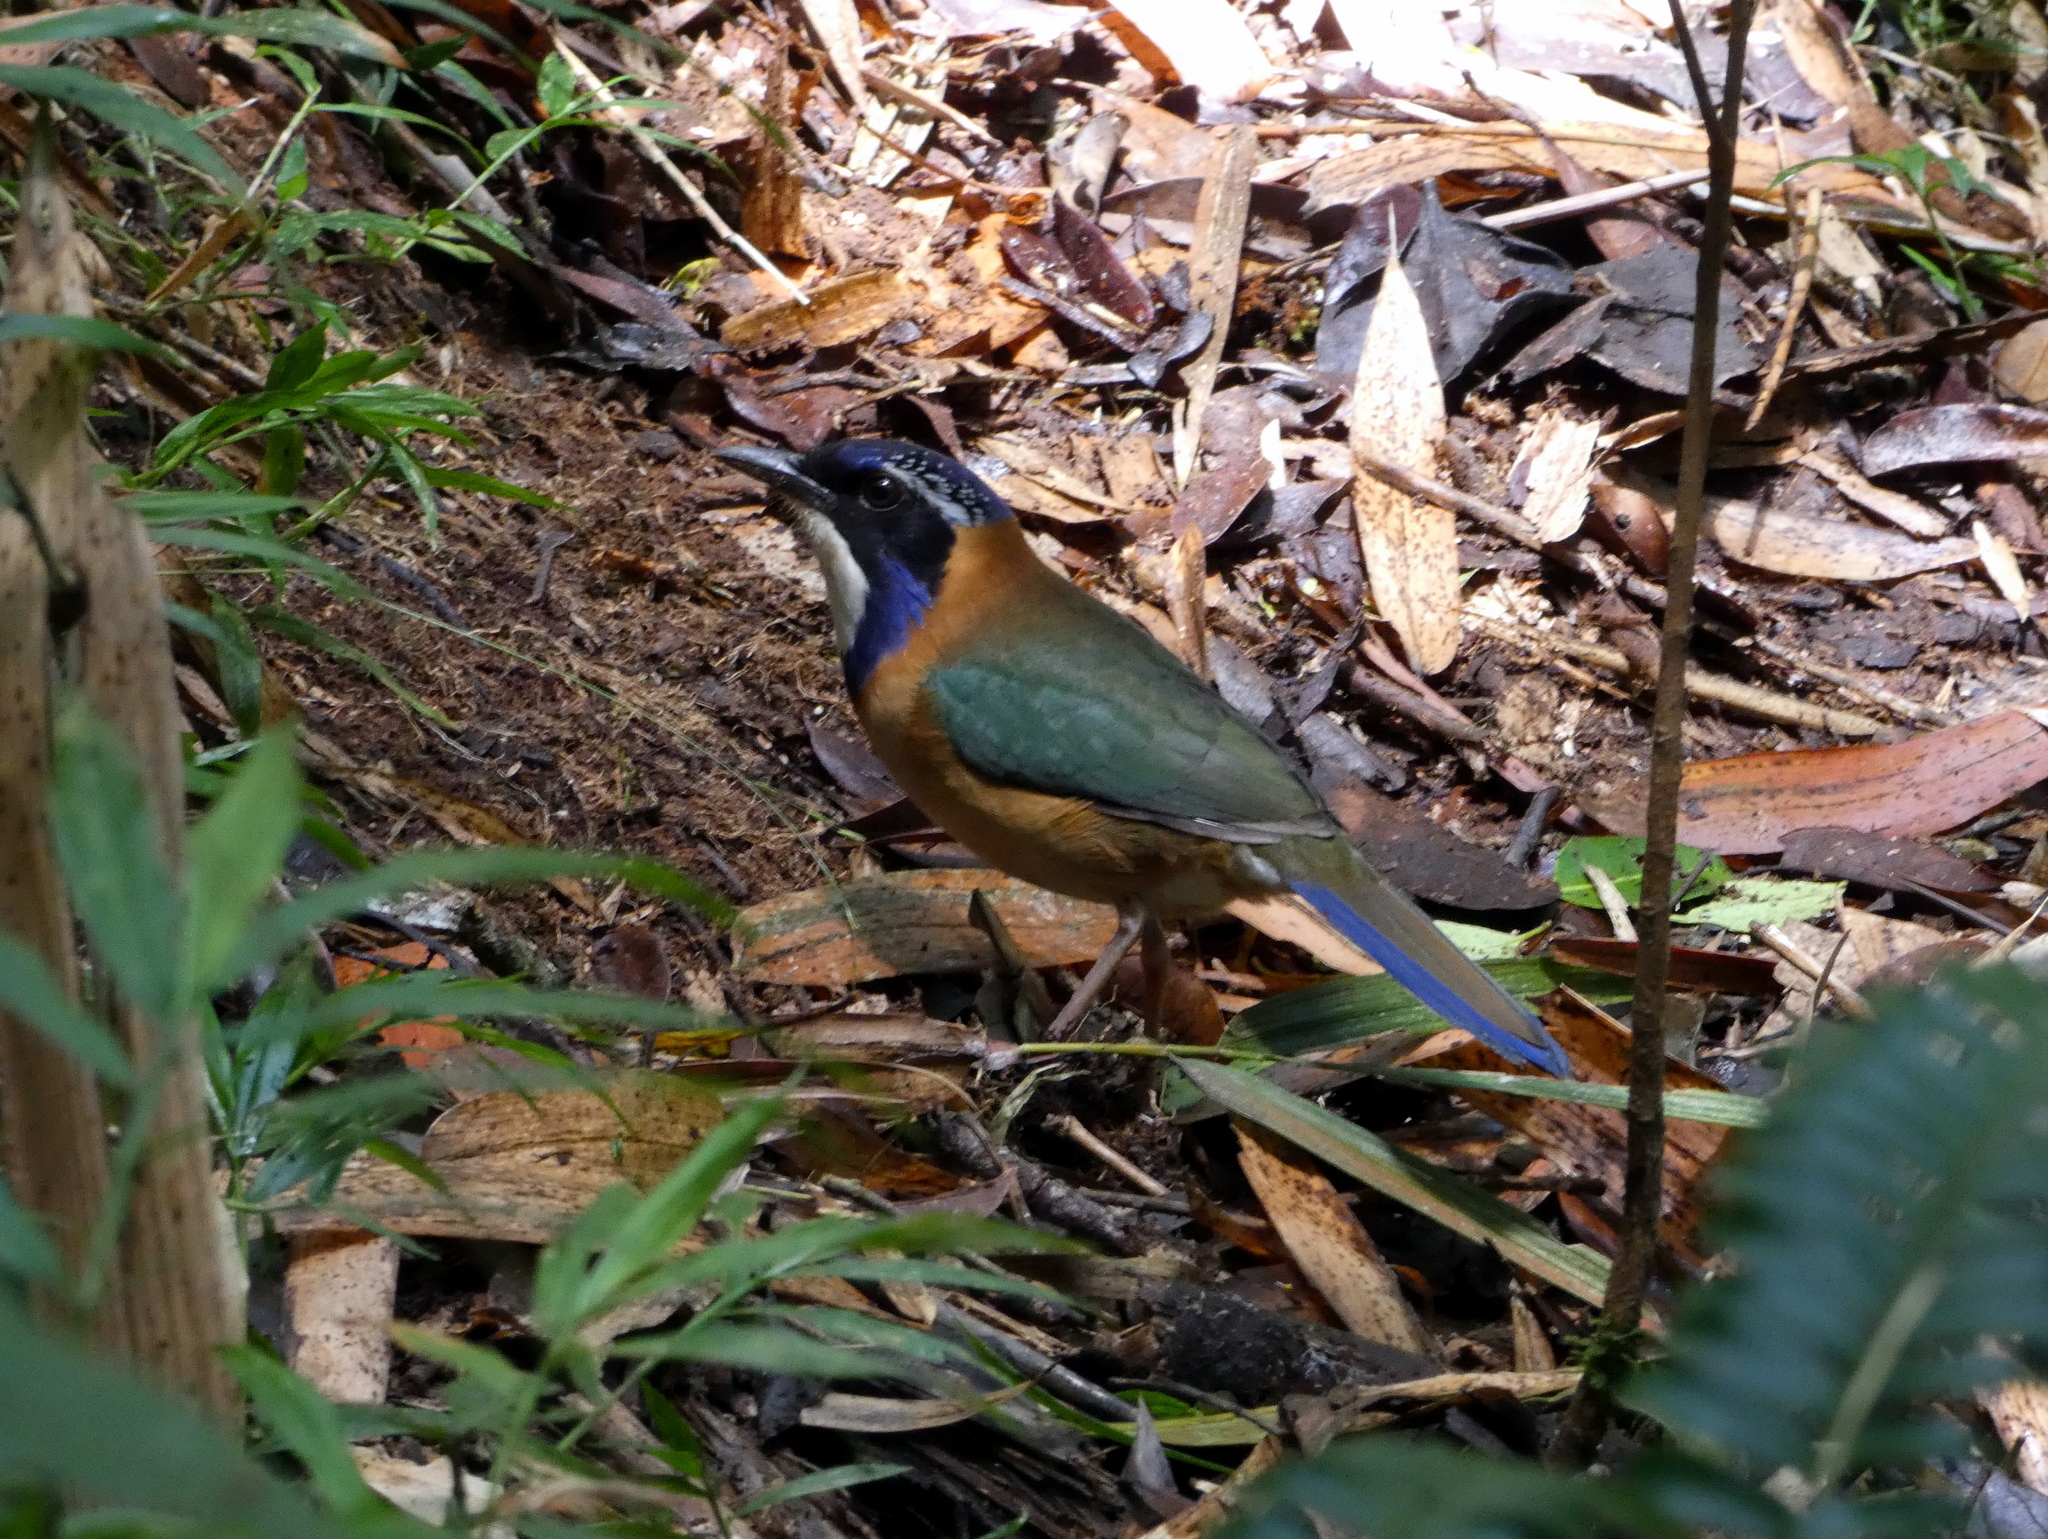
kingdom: Animalia
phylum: Chordata
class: Aves
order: Coraciiformes
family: Brachypteraciidae
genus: Atelornis
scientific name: Atelornis pittoides
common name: Pitta-like ground-roller
